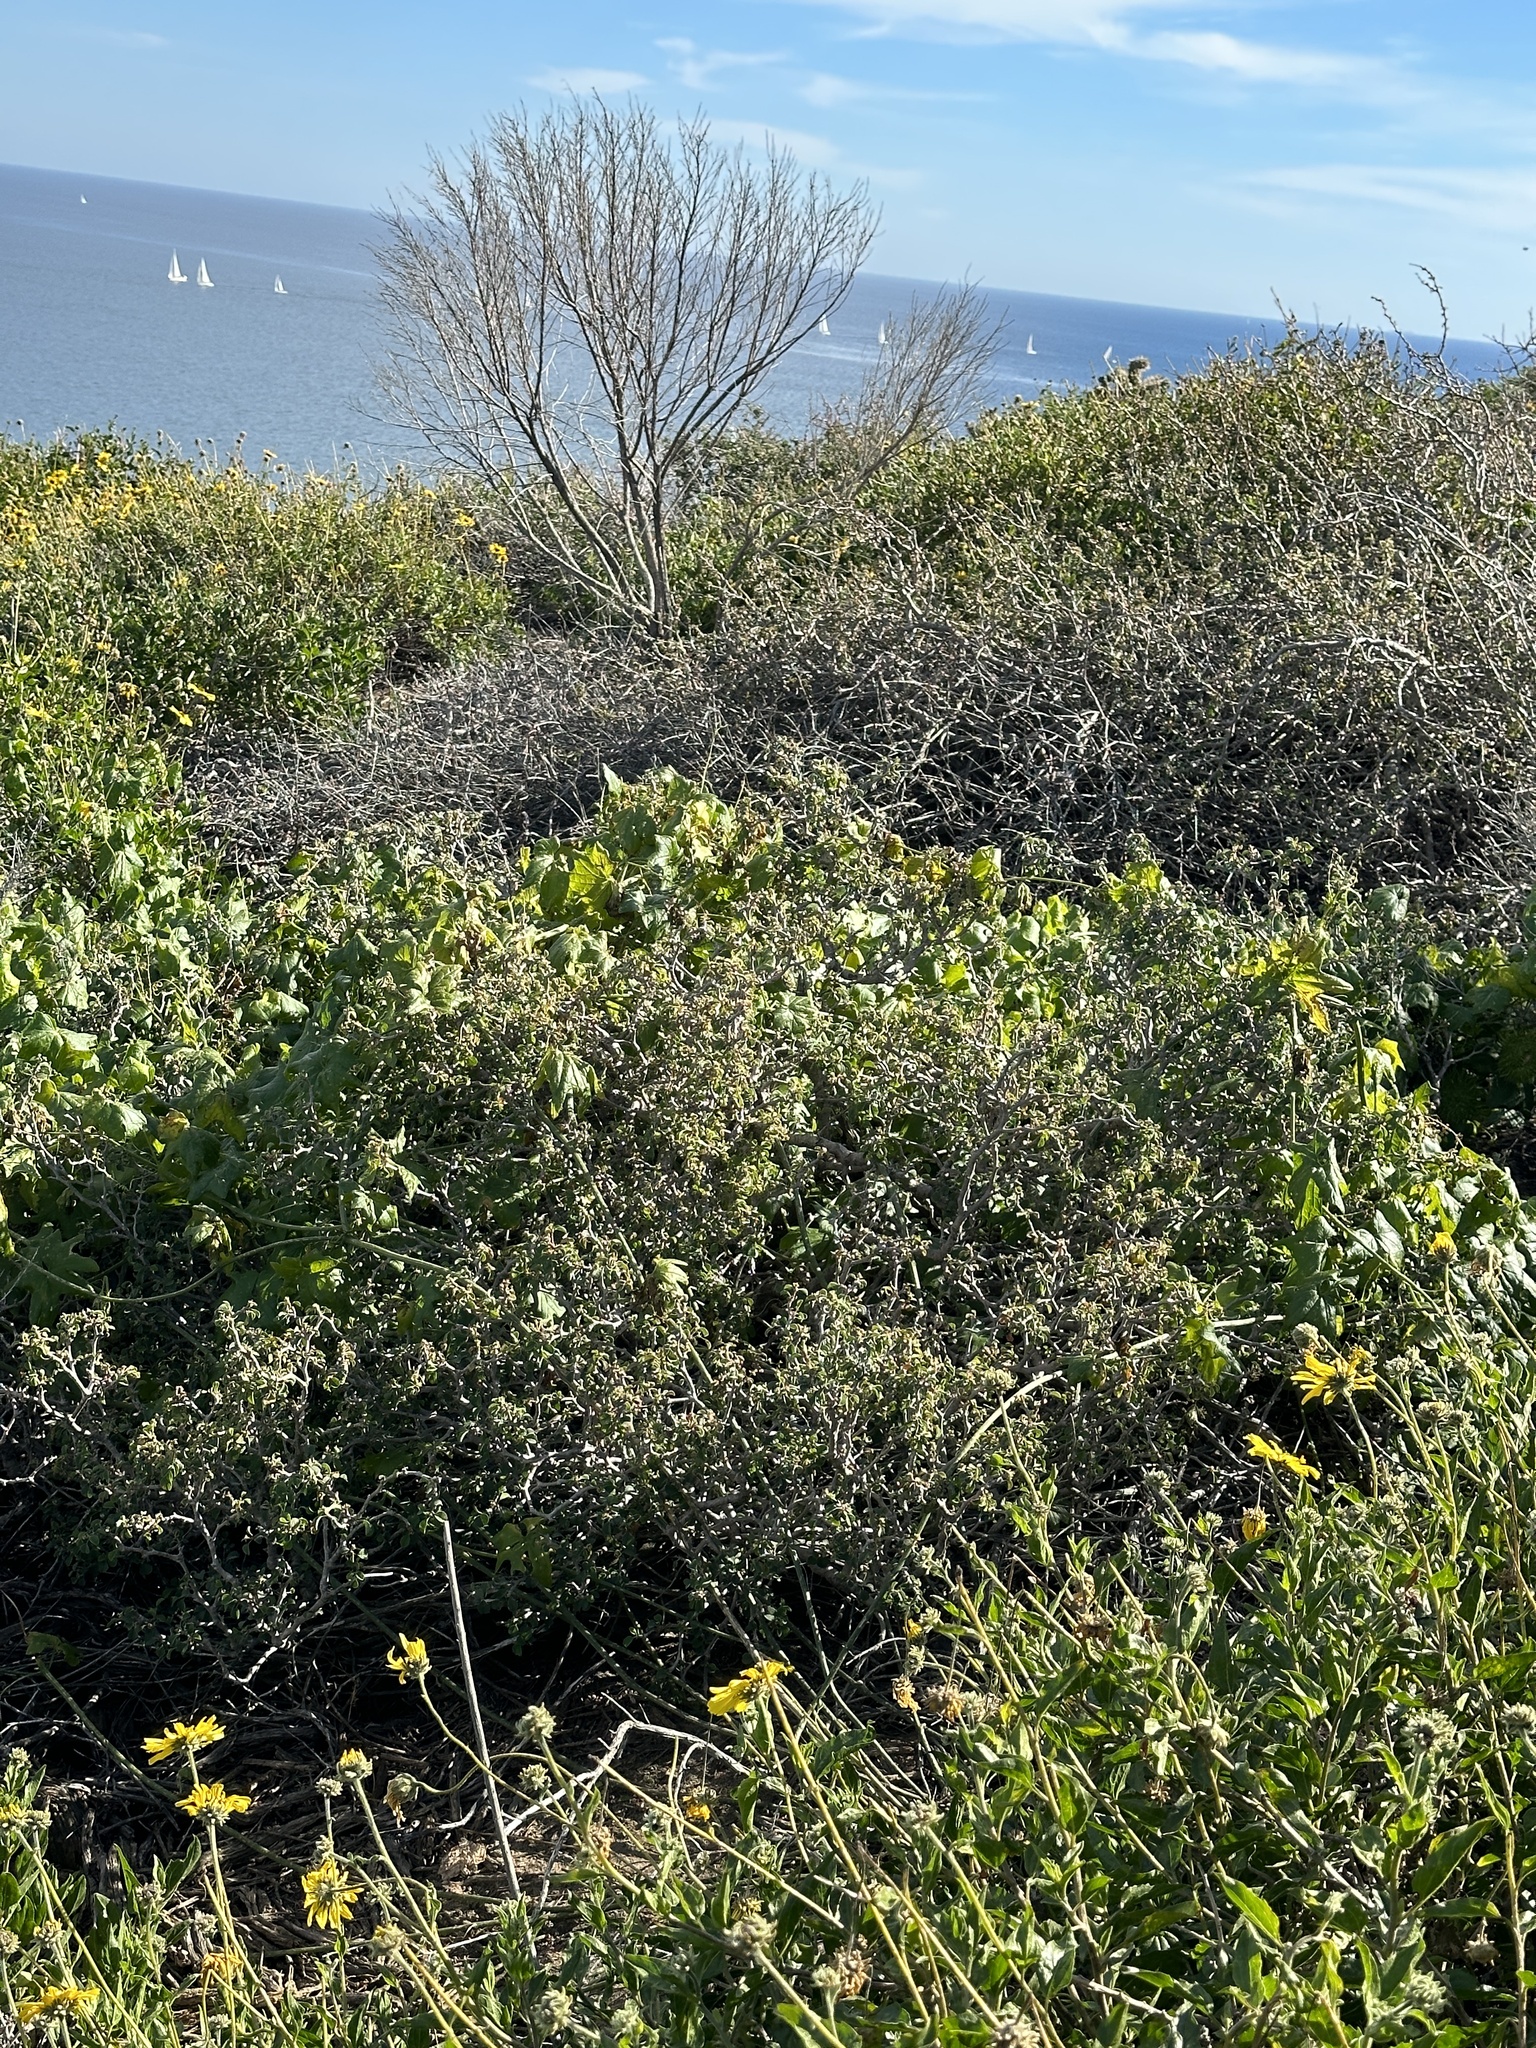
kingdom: Plantae
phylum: Tracheophyta
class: Magnoliopsida
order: Malpighiales
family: Euphorbiaceae
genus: Euphorbia
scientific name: Euphorbia misera
